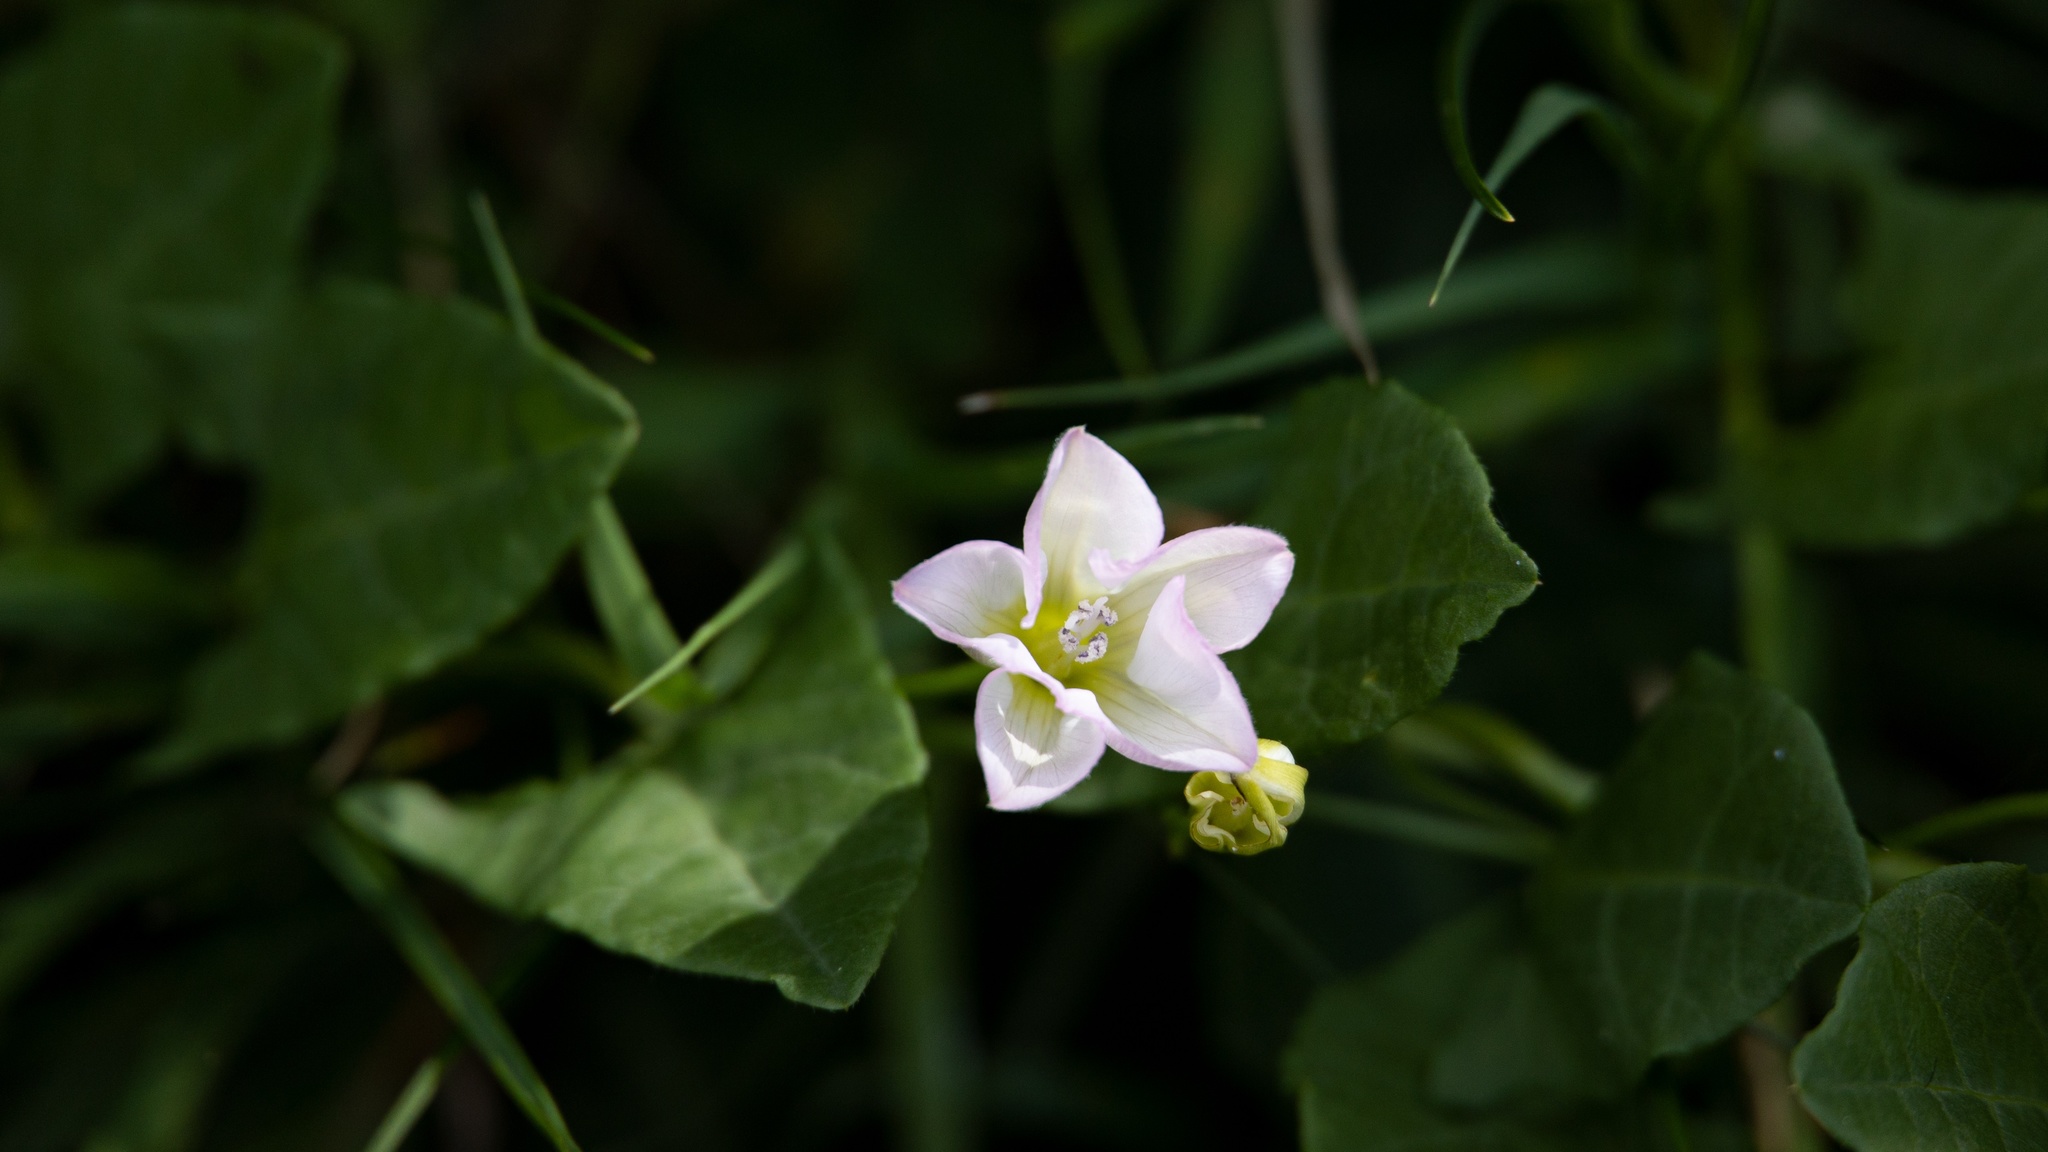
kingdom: Plantae
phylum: Tracheophyta
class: Magnoliopsida
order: Solanales
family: Convolvulaceae
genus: Convolvulus
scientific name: Convolvulus arvensis
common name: Field bindweed
